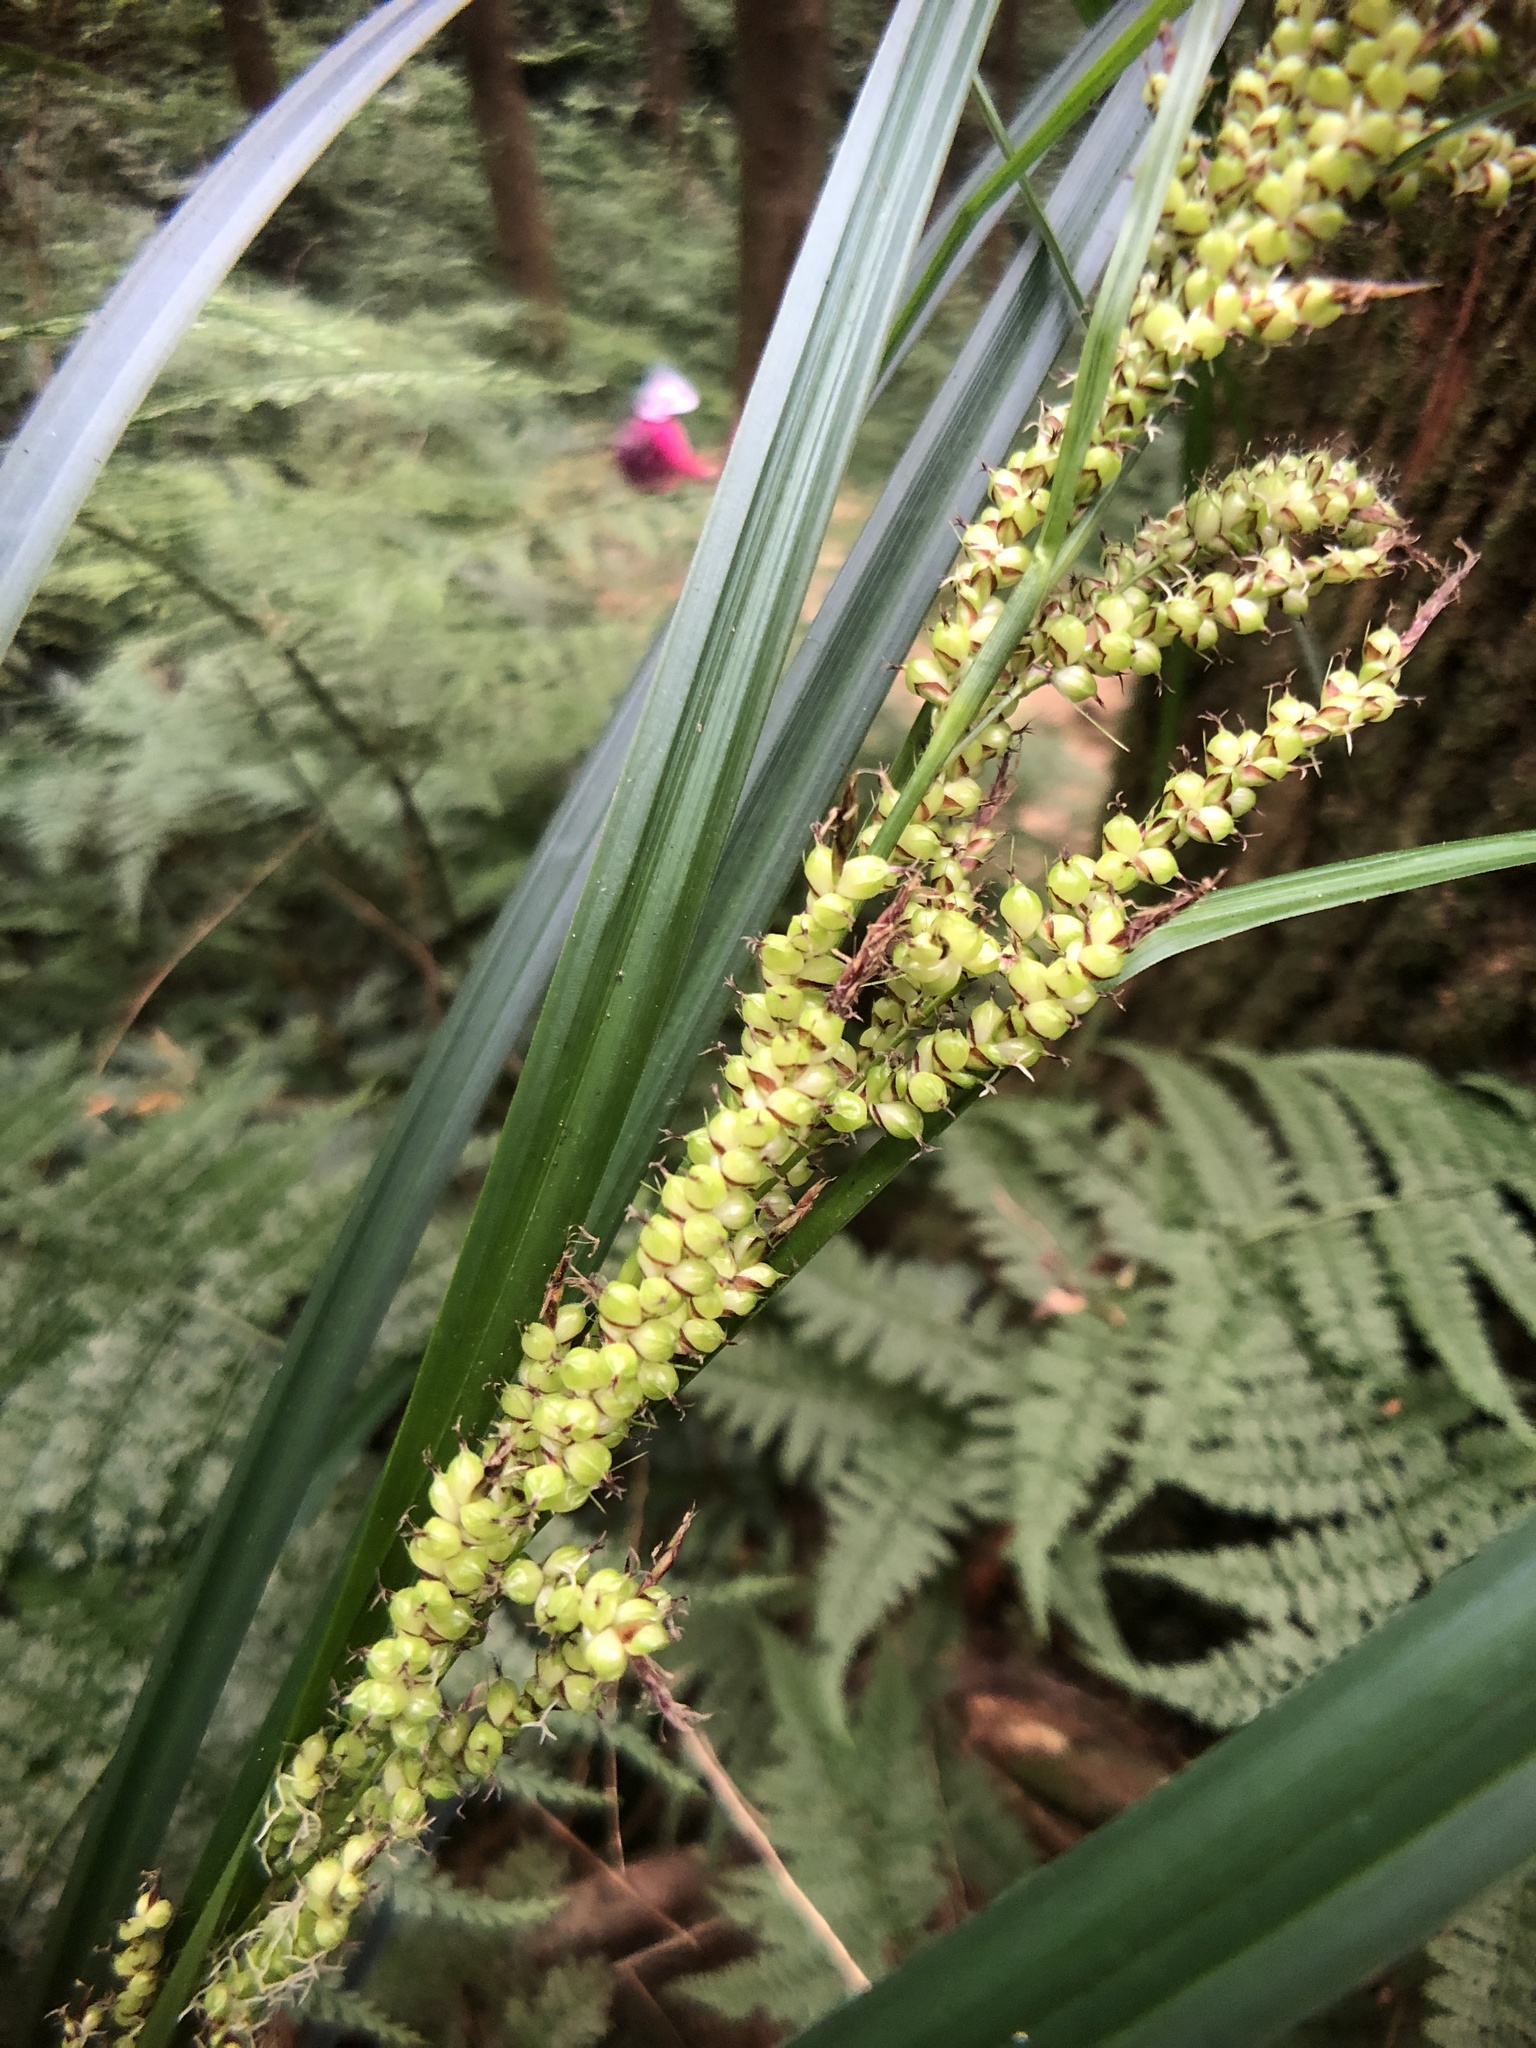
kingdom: Plantae
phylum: Tracheophyta
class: Liliopsida
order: Poales
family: Cyperaceae
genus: Carex
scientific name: Carex baccans
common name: Crimson seeded sedge
